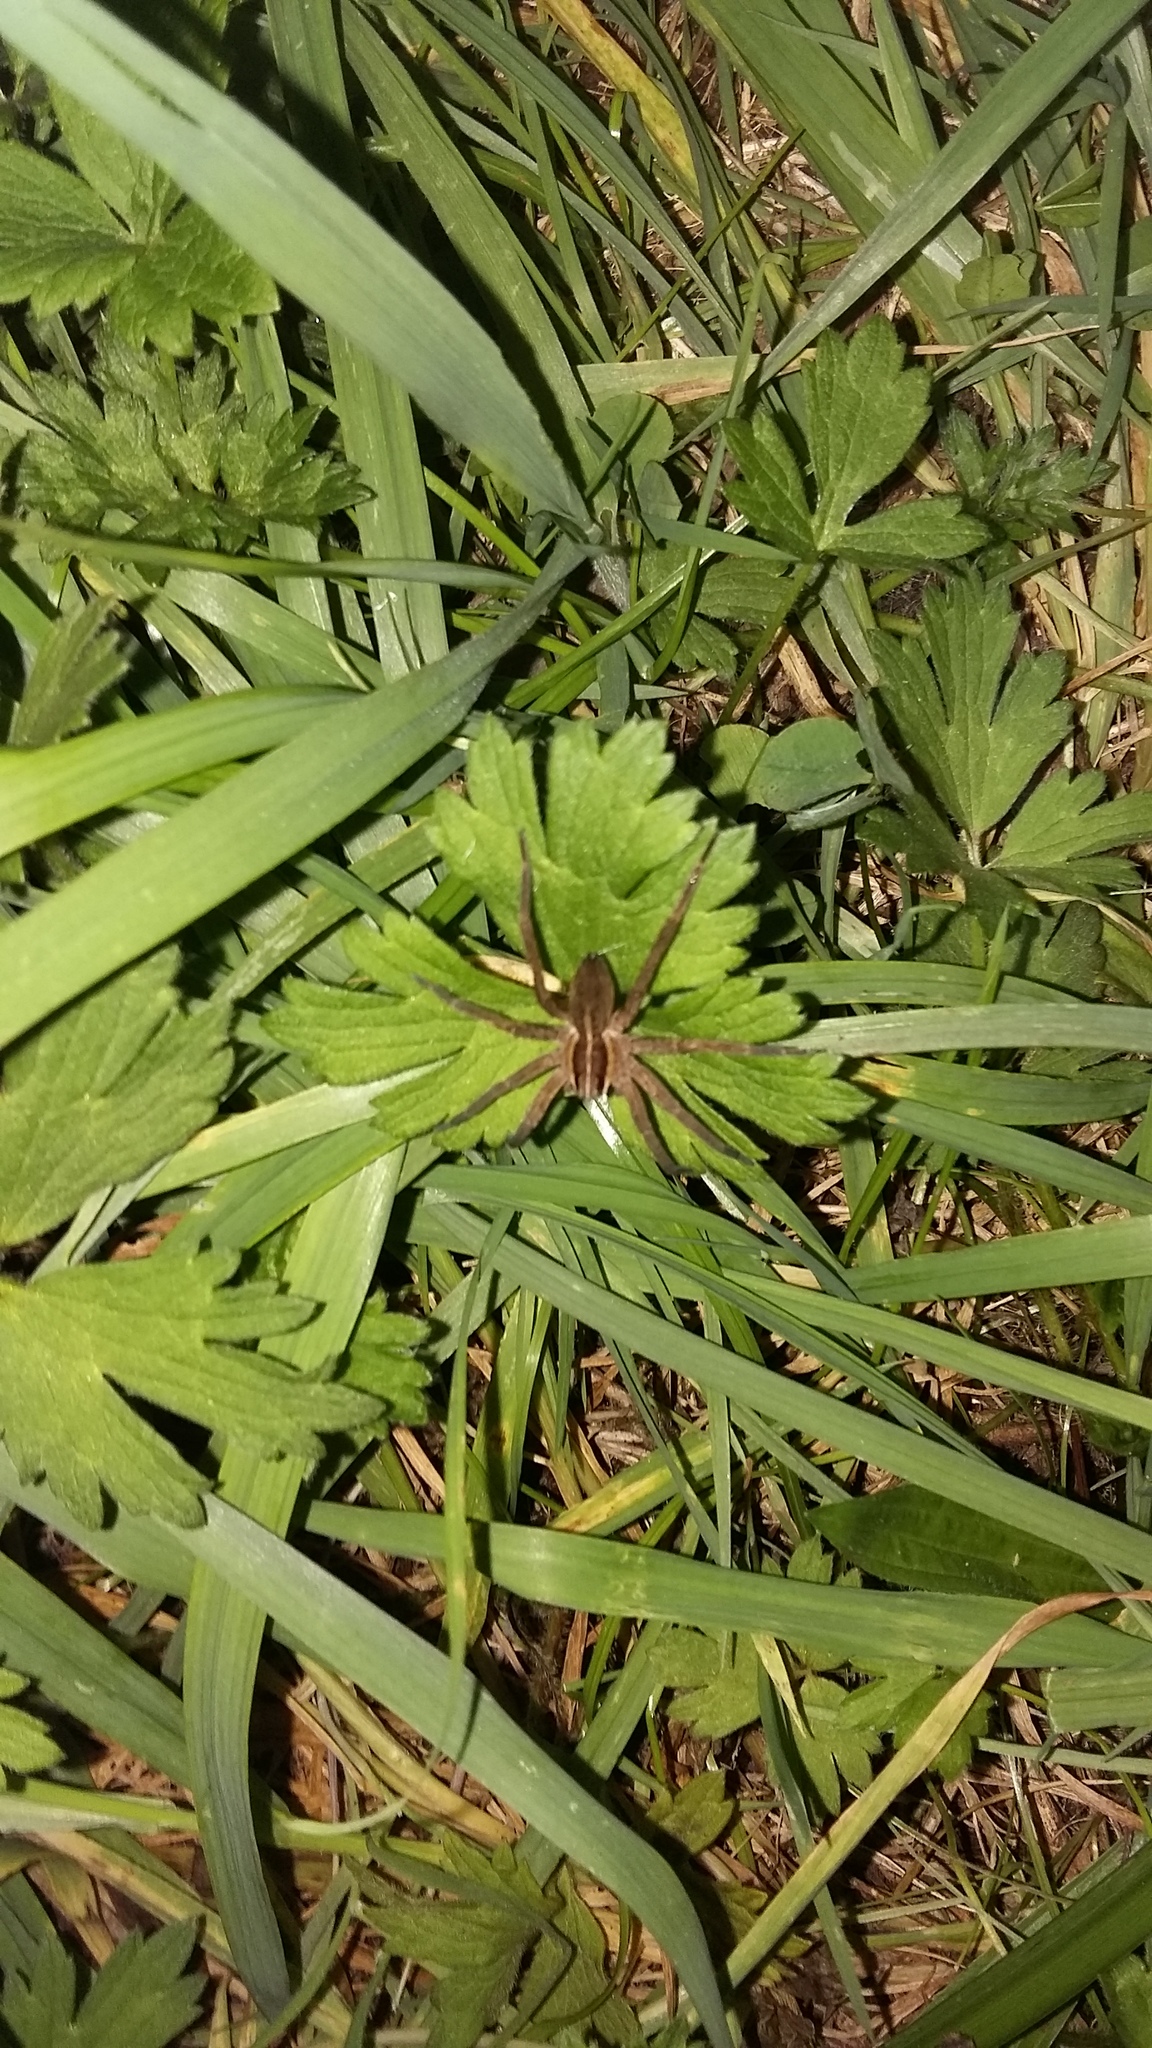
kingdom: Animalia
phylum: Arthropoda
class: Arachnida
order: Araneae
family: Pisauridae
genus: Dolomedes
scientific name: Dolomedes minor
